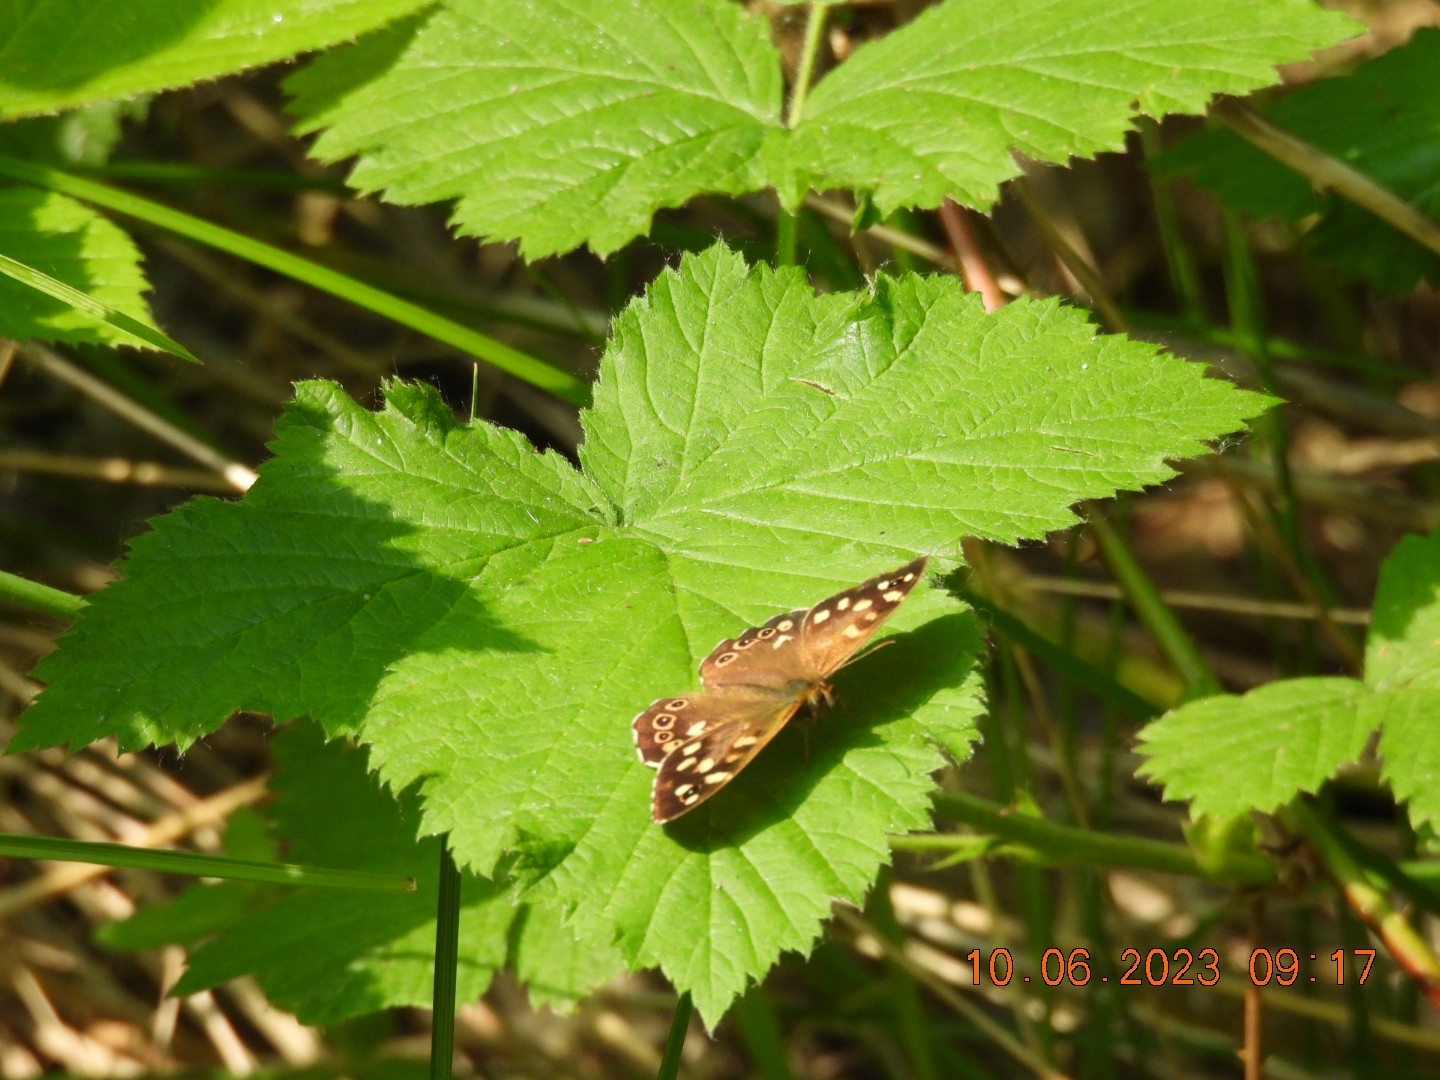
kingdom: Animalia
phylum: Arthropoda
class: Insecta
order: Lepidoptera
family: Nymphalidae
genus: Pararge
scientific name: Pararge aegeria
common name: Speckled wood
